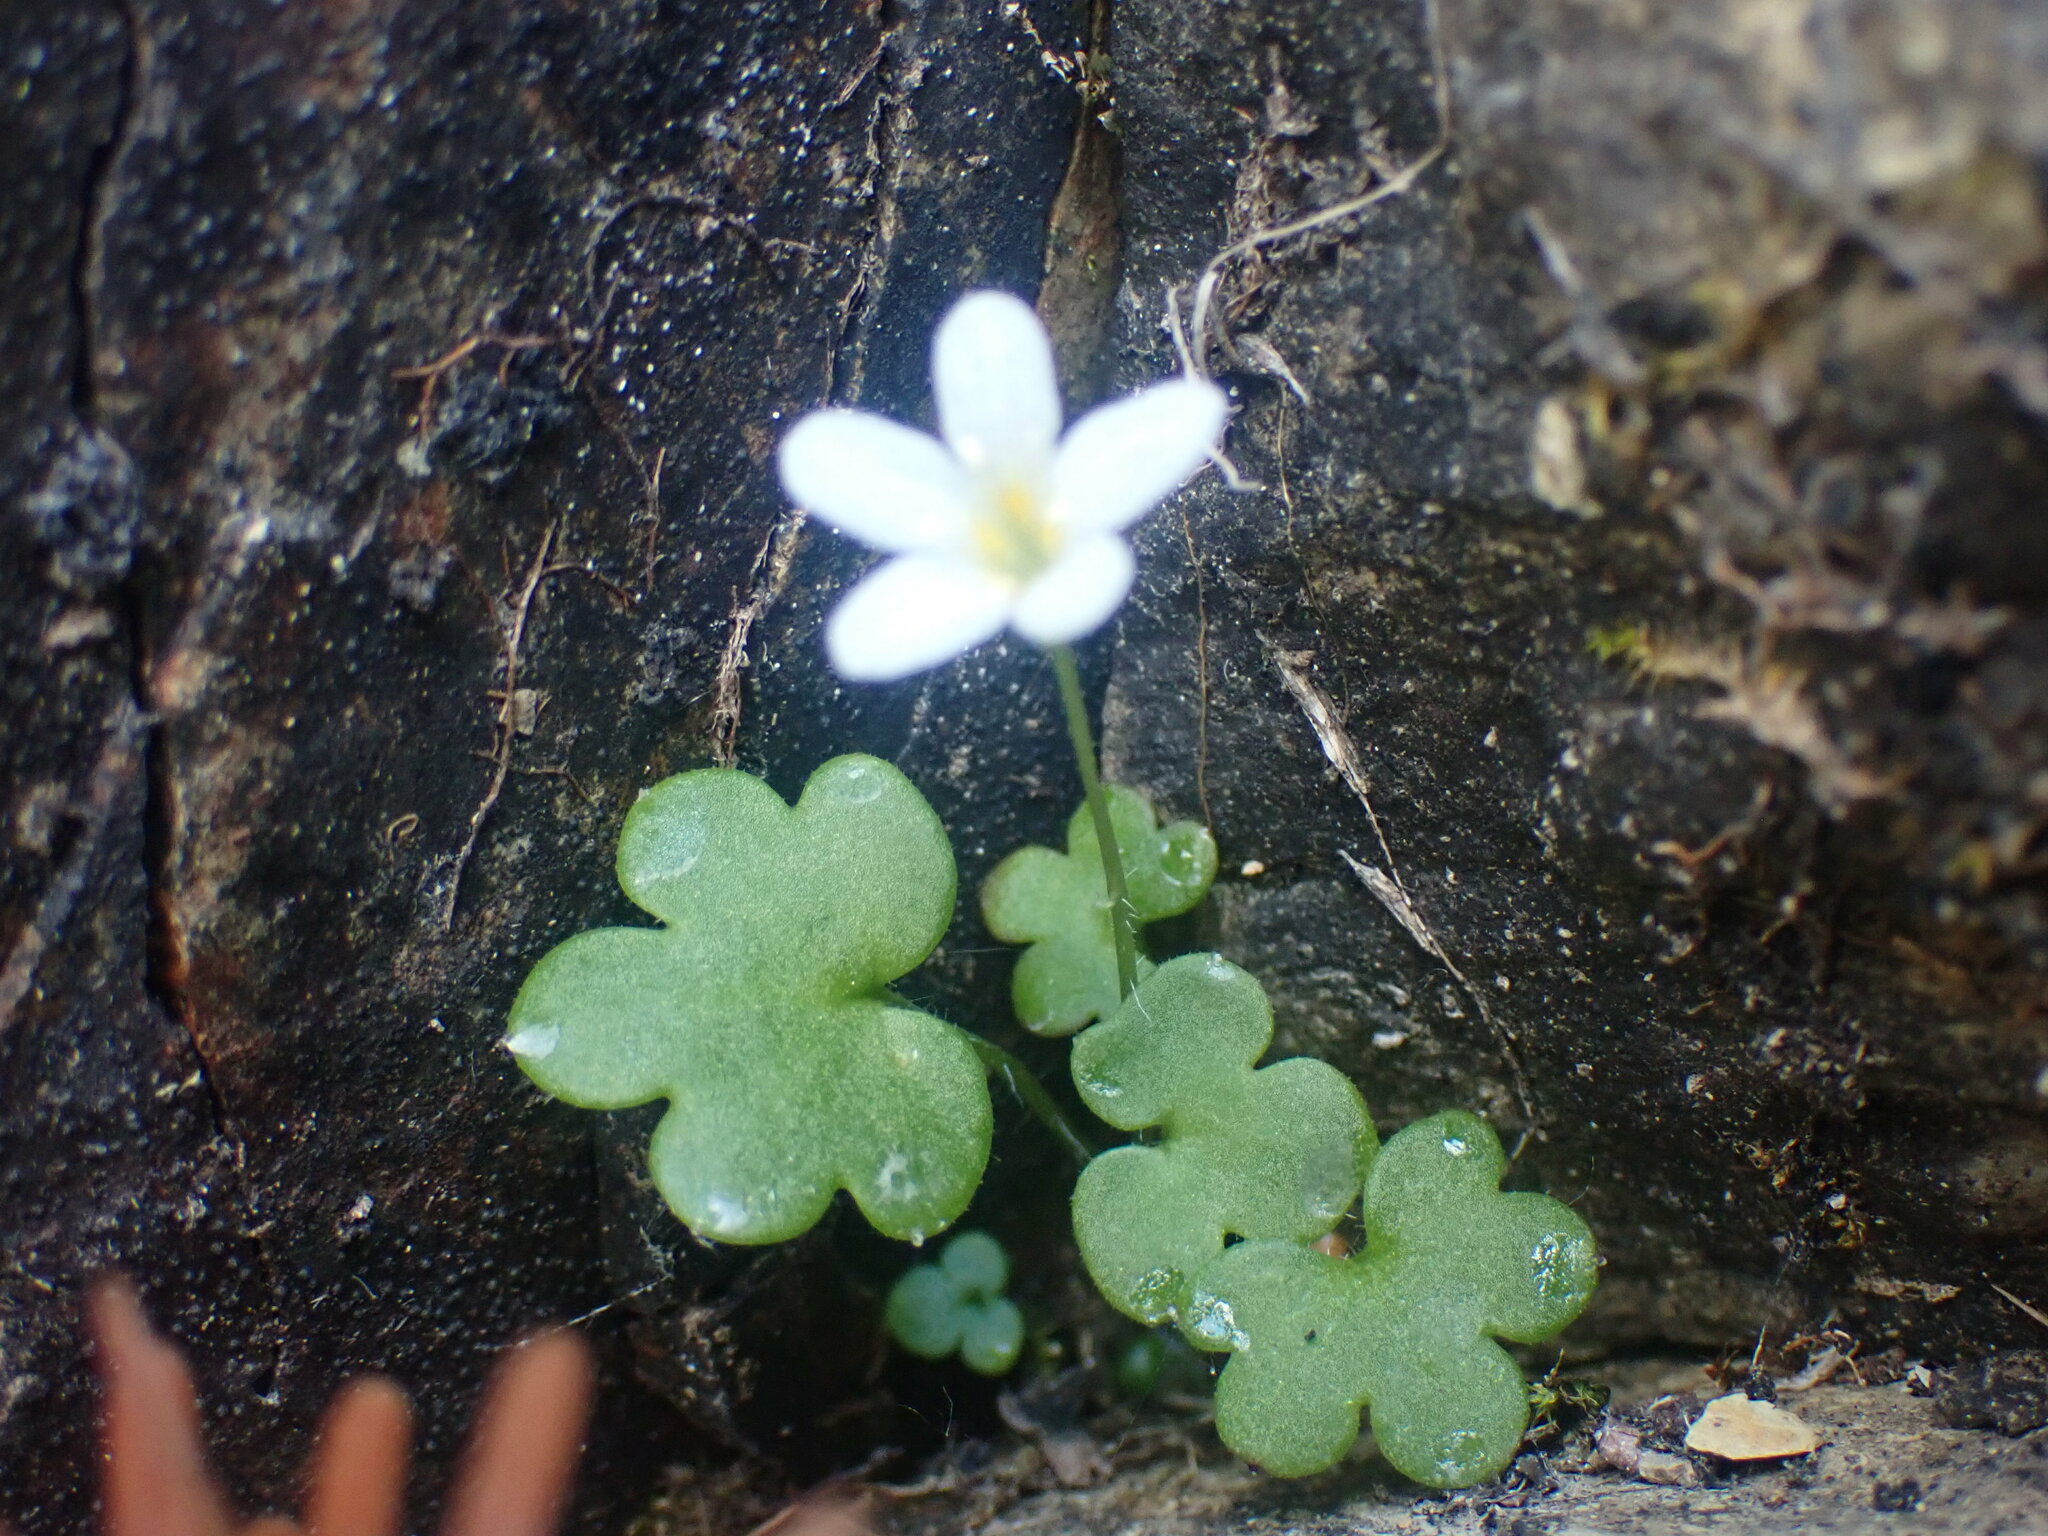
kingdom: Plantae
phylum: Tracheophyta
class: Magnoliopsida
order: Boraginales
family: Hydrophyllaceae
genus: Romanzoffia
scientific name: Romanzoffia sitchensis
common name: Sitka mistmaid
